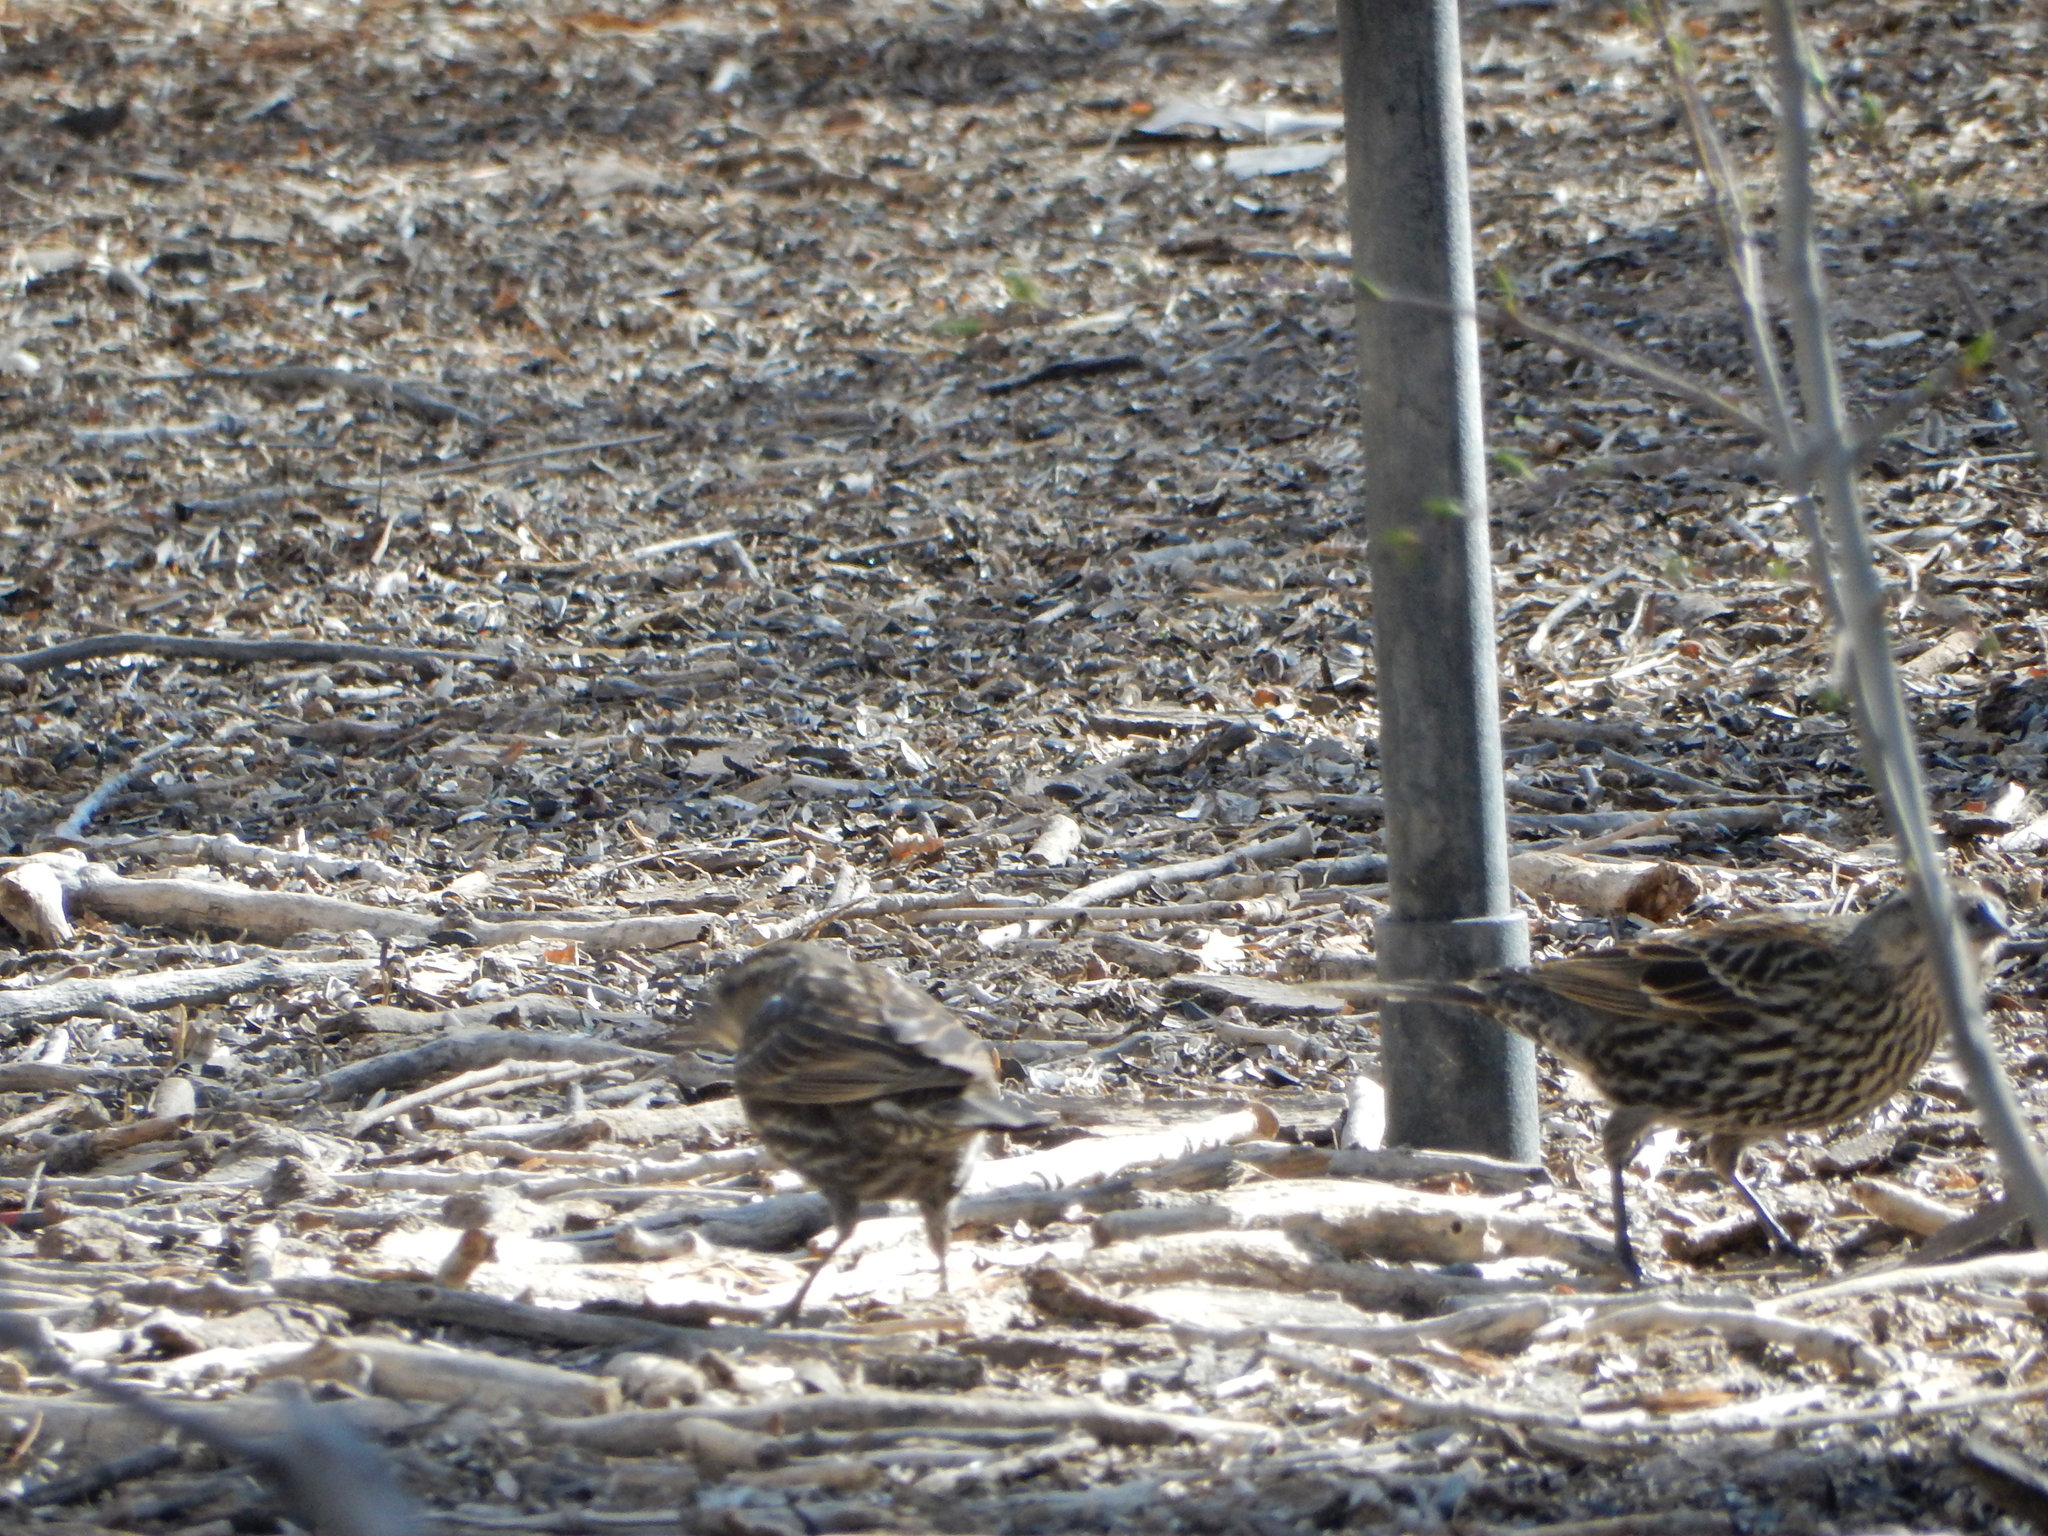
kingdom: Animalia
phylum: Chordata
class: Aves
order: Passeriformes
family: Icteridae
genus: Agelaius
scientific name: Agelaius phoeniceus
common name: Red-winged blackbird
